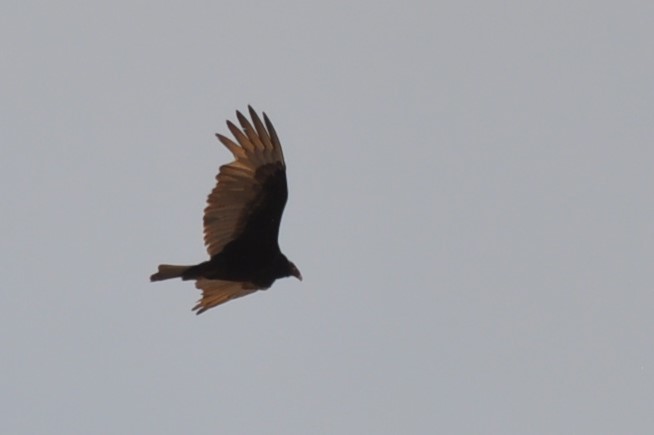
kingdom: Animalia
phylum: Chordata
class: Aves
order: Accipitriformes
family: Cathartidae
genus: Cathartes
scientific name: Cathartes aura
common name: Turkey vulture
